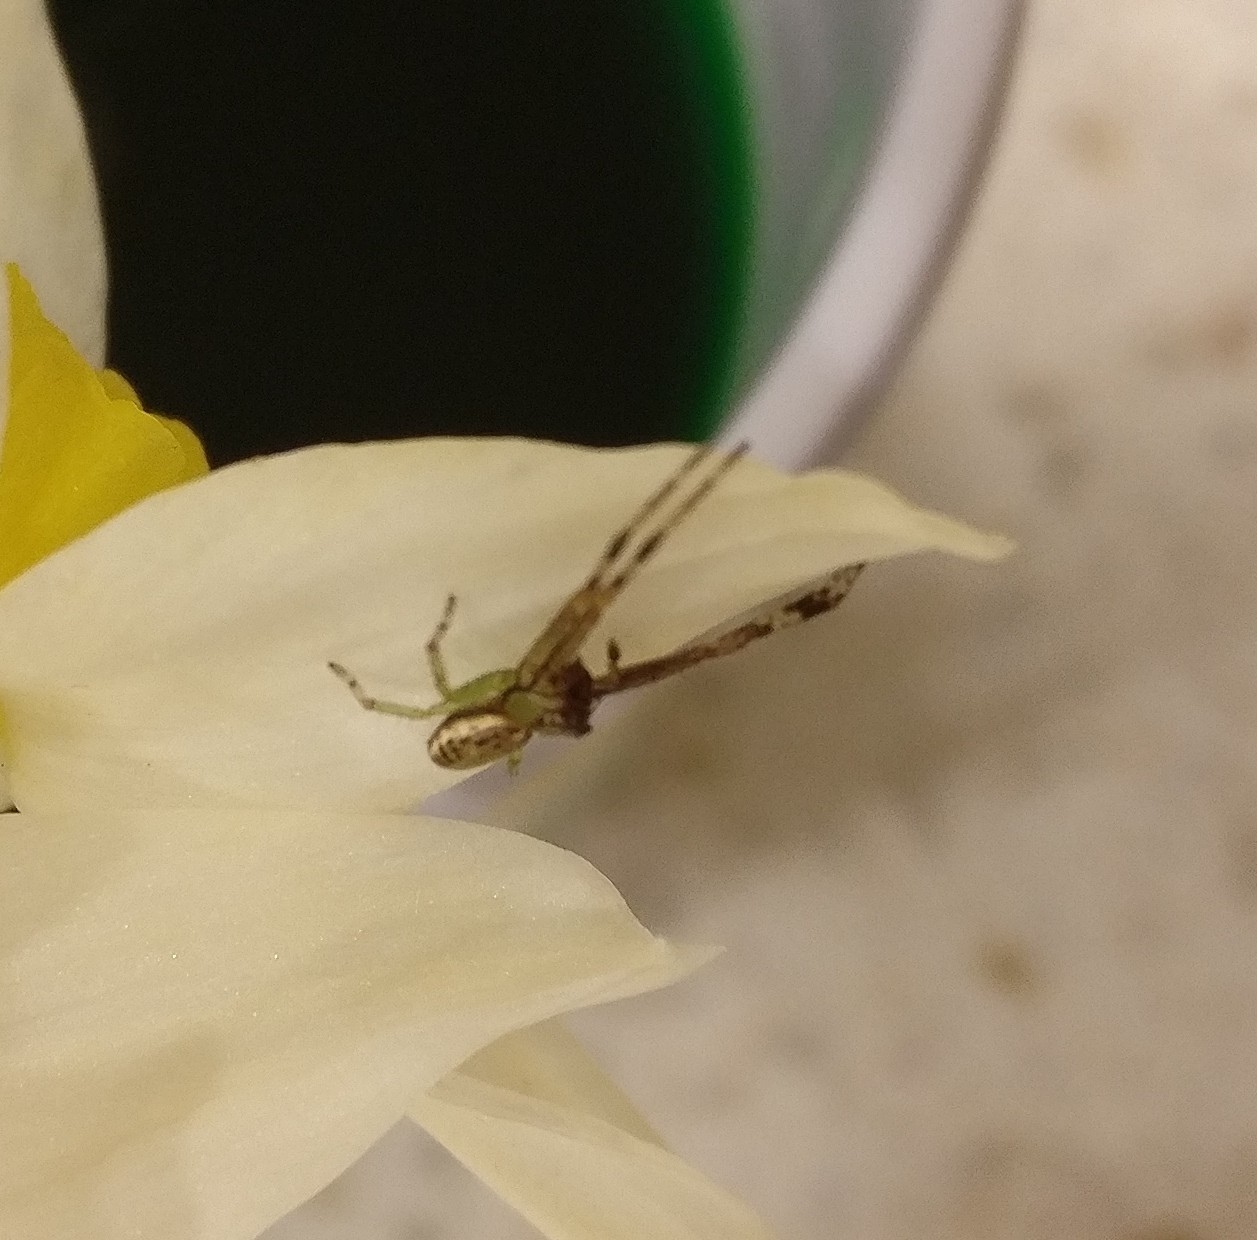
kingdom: Animalia
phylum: Arthropoda
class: Arachnida
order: Araneae
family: Thomisidae
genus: Diaea
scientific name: Diaea ambara
